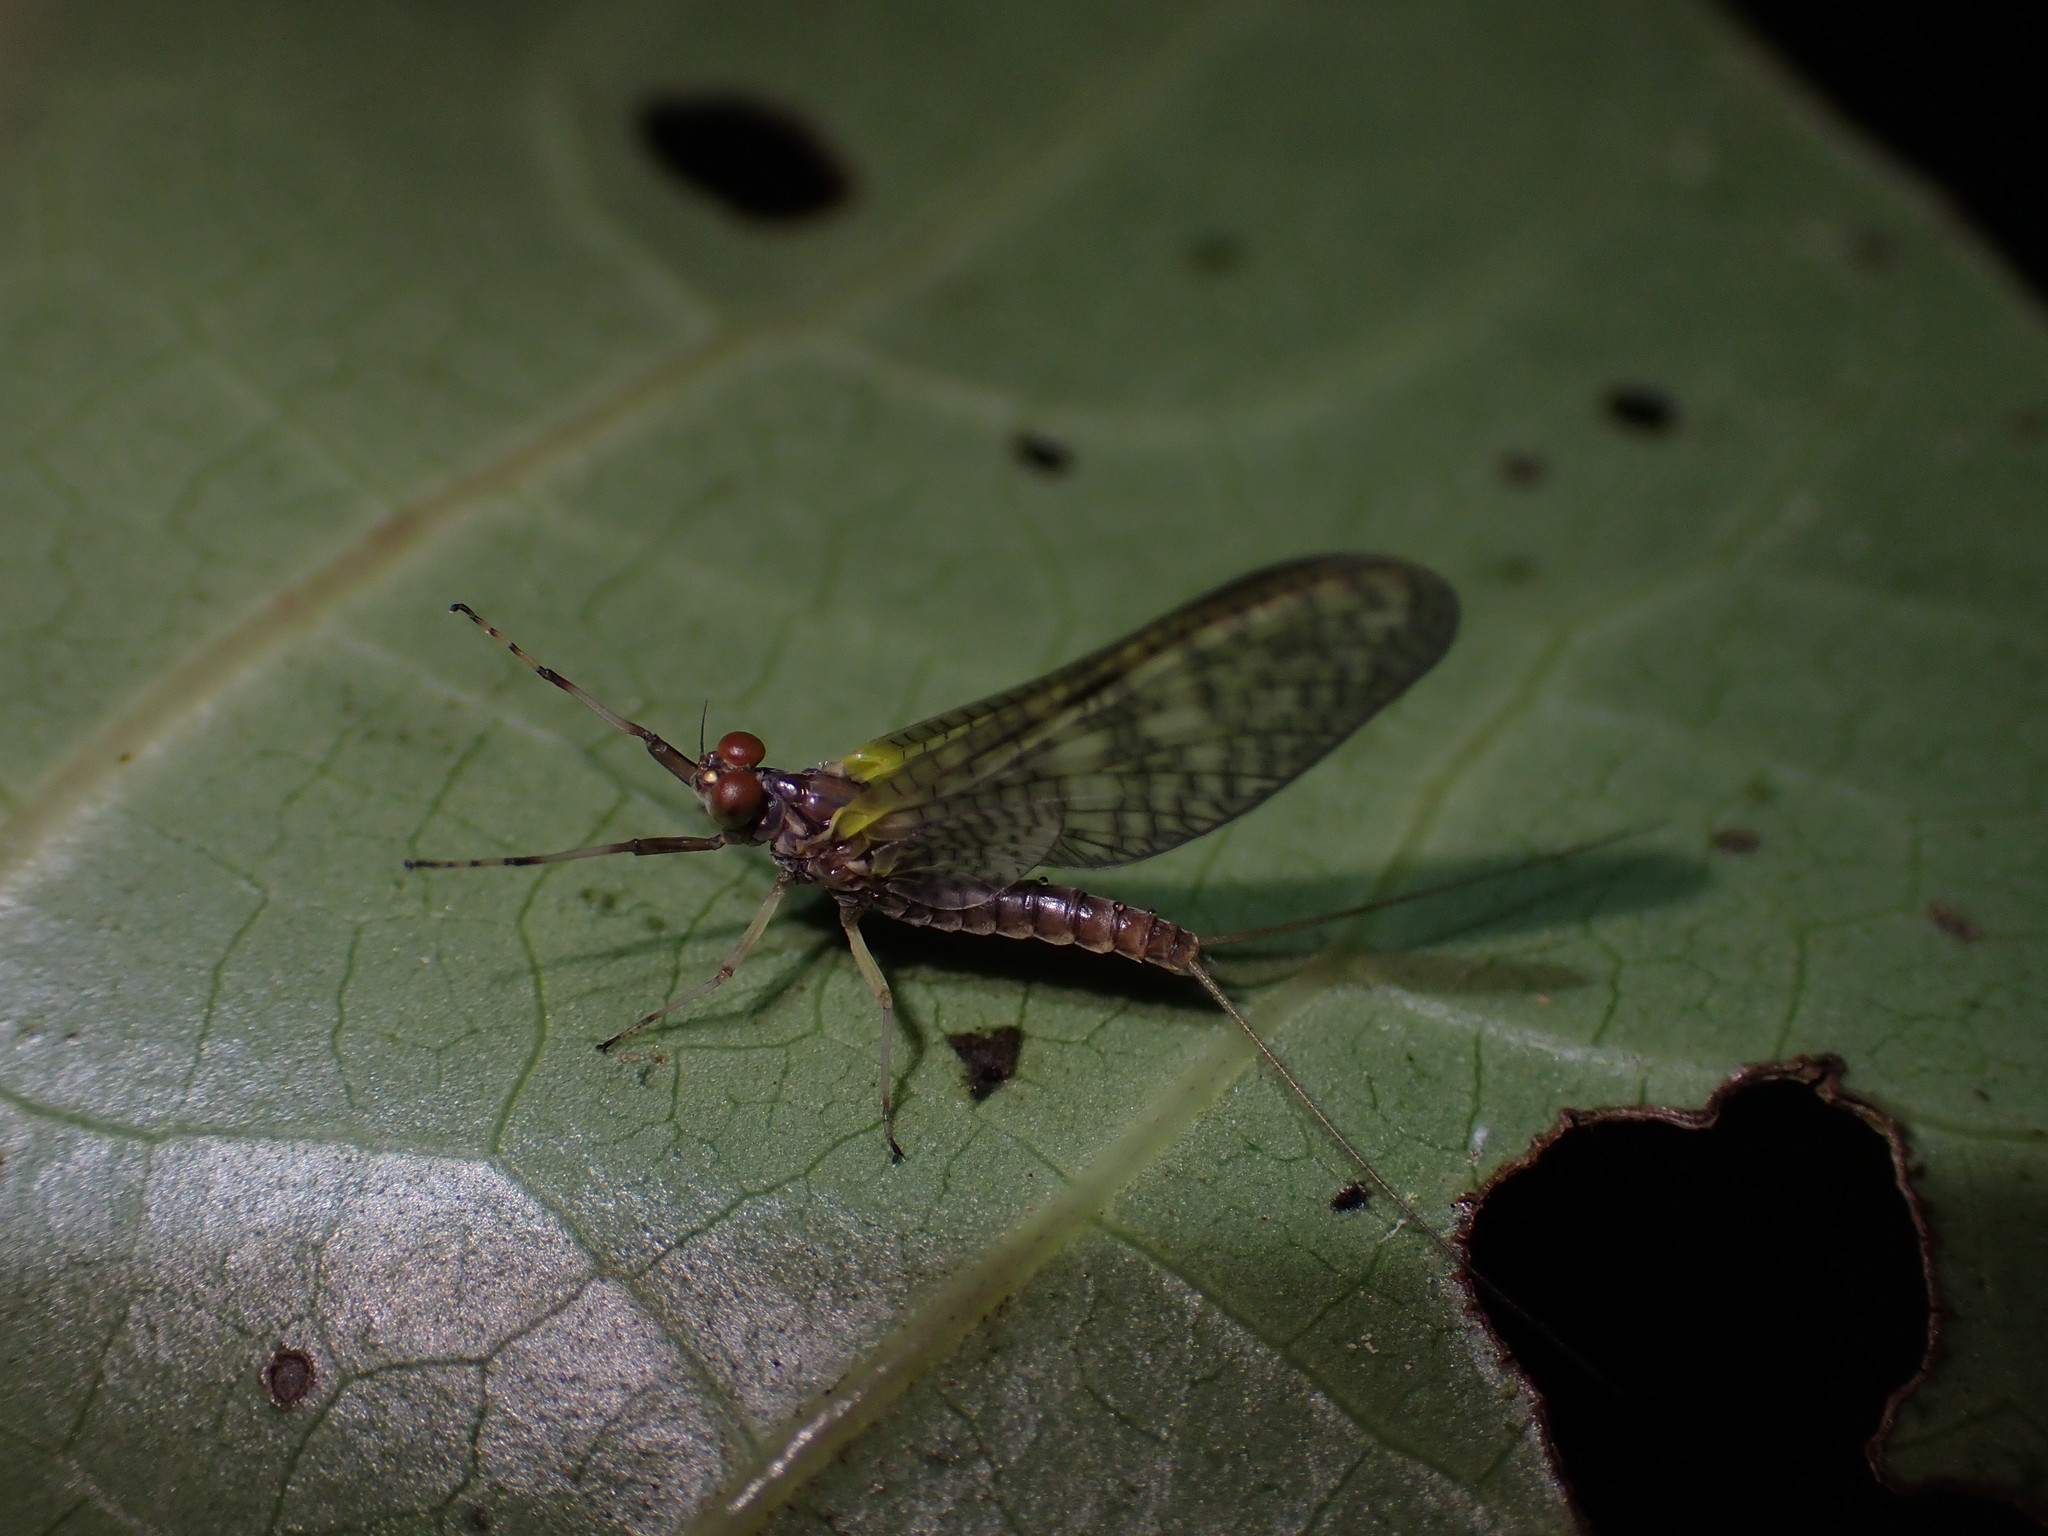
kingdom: Animalia
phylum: Arthropoda
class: Insecta
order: Ephemeroptera
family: Coloburiscidae
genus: Coloburiscus
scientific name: Coloburiscus humeralis
